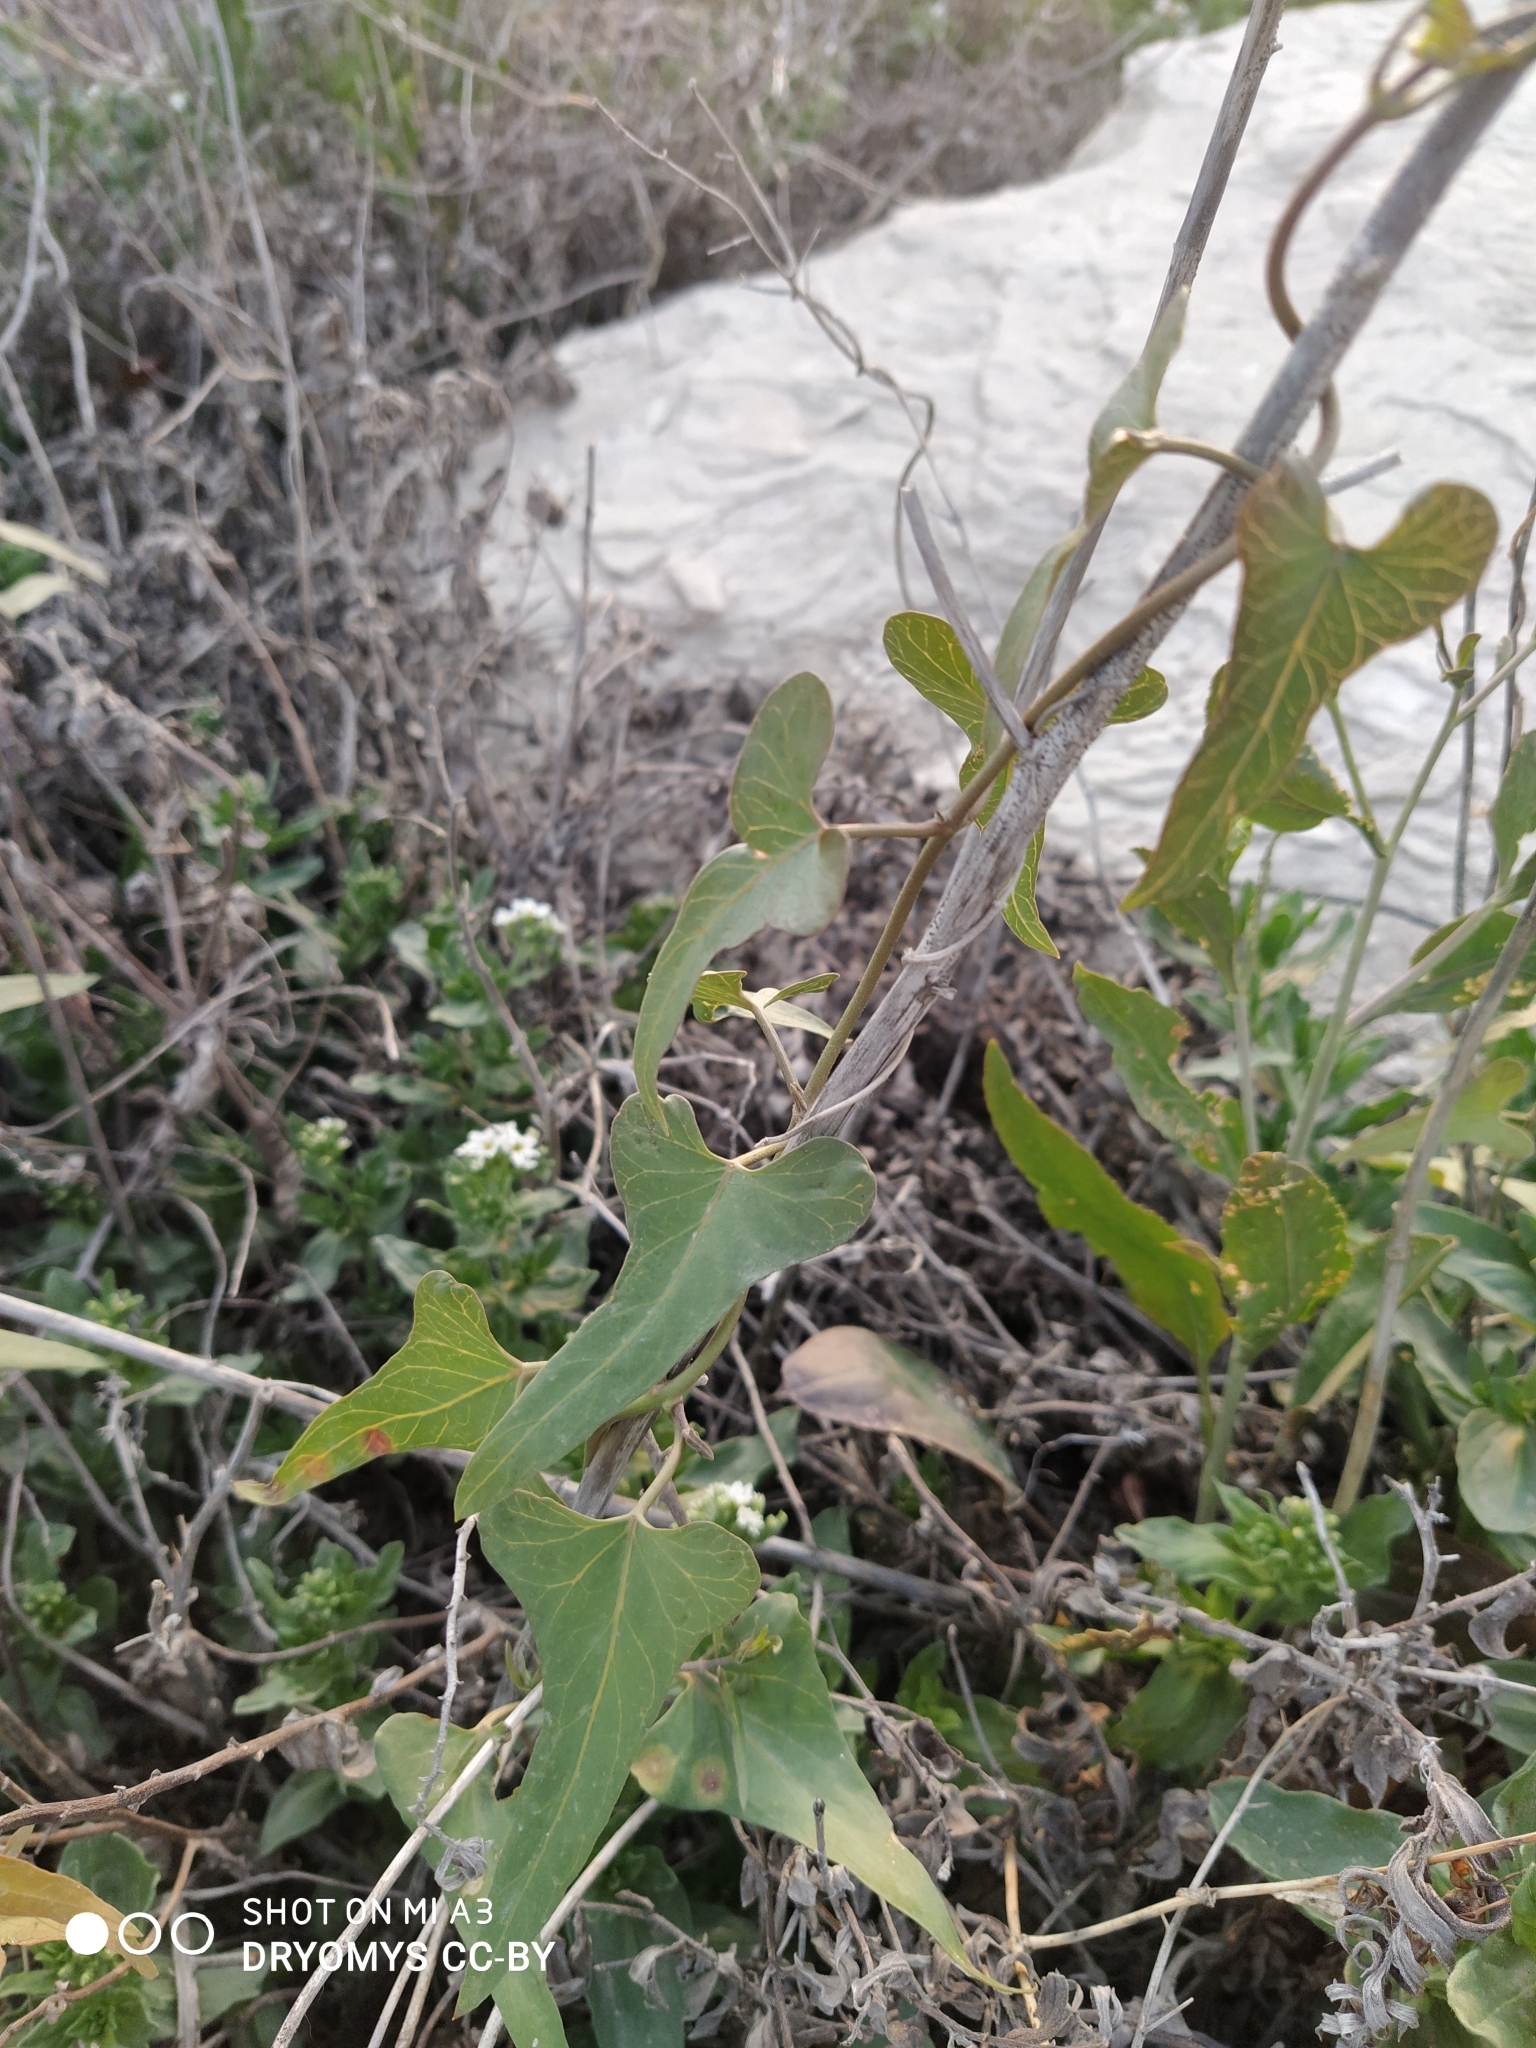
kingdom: Plantae
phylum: Tracheophyta
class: Magnoliopsida
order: Gentianales
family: Apocynaceae
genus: Cynanchum
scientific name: Cynanchum acutum
